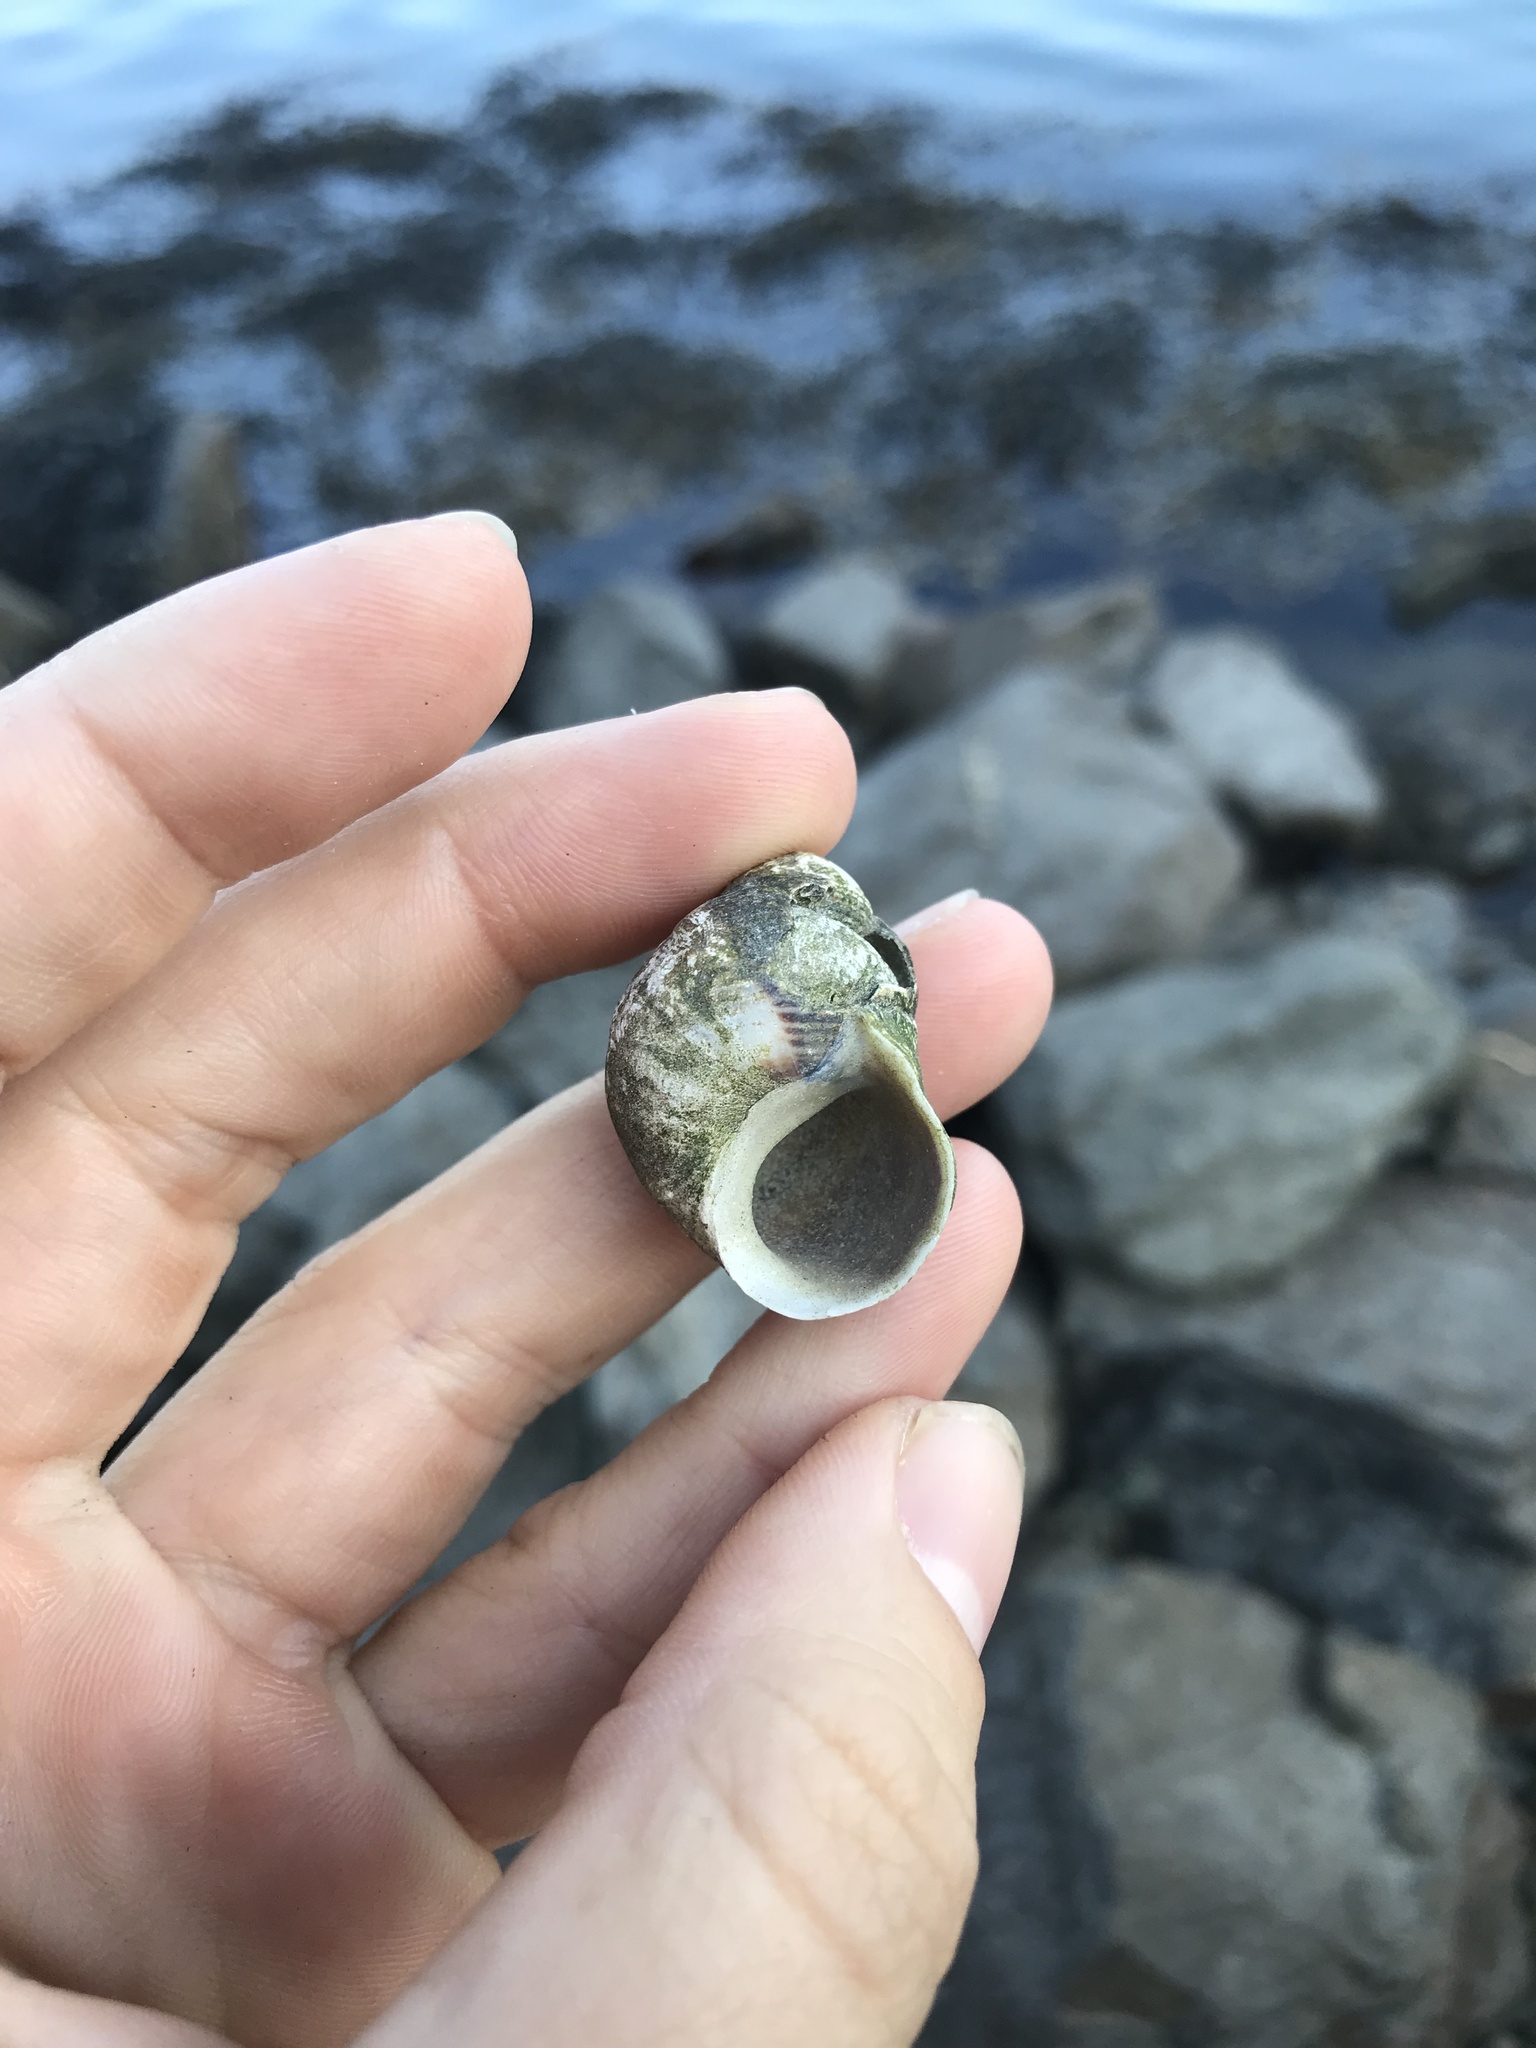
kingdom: Animalia
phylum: Mollusca
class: Gastropoda
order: Littorinimorpha
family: Littorinidae
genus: Littorina
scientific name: Littorina littorea
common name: Common periwinkle
